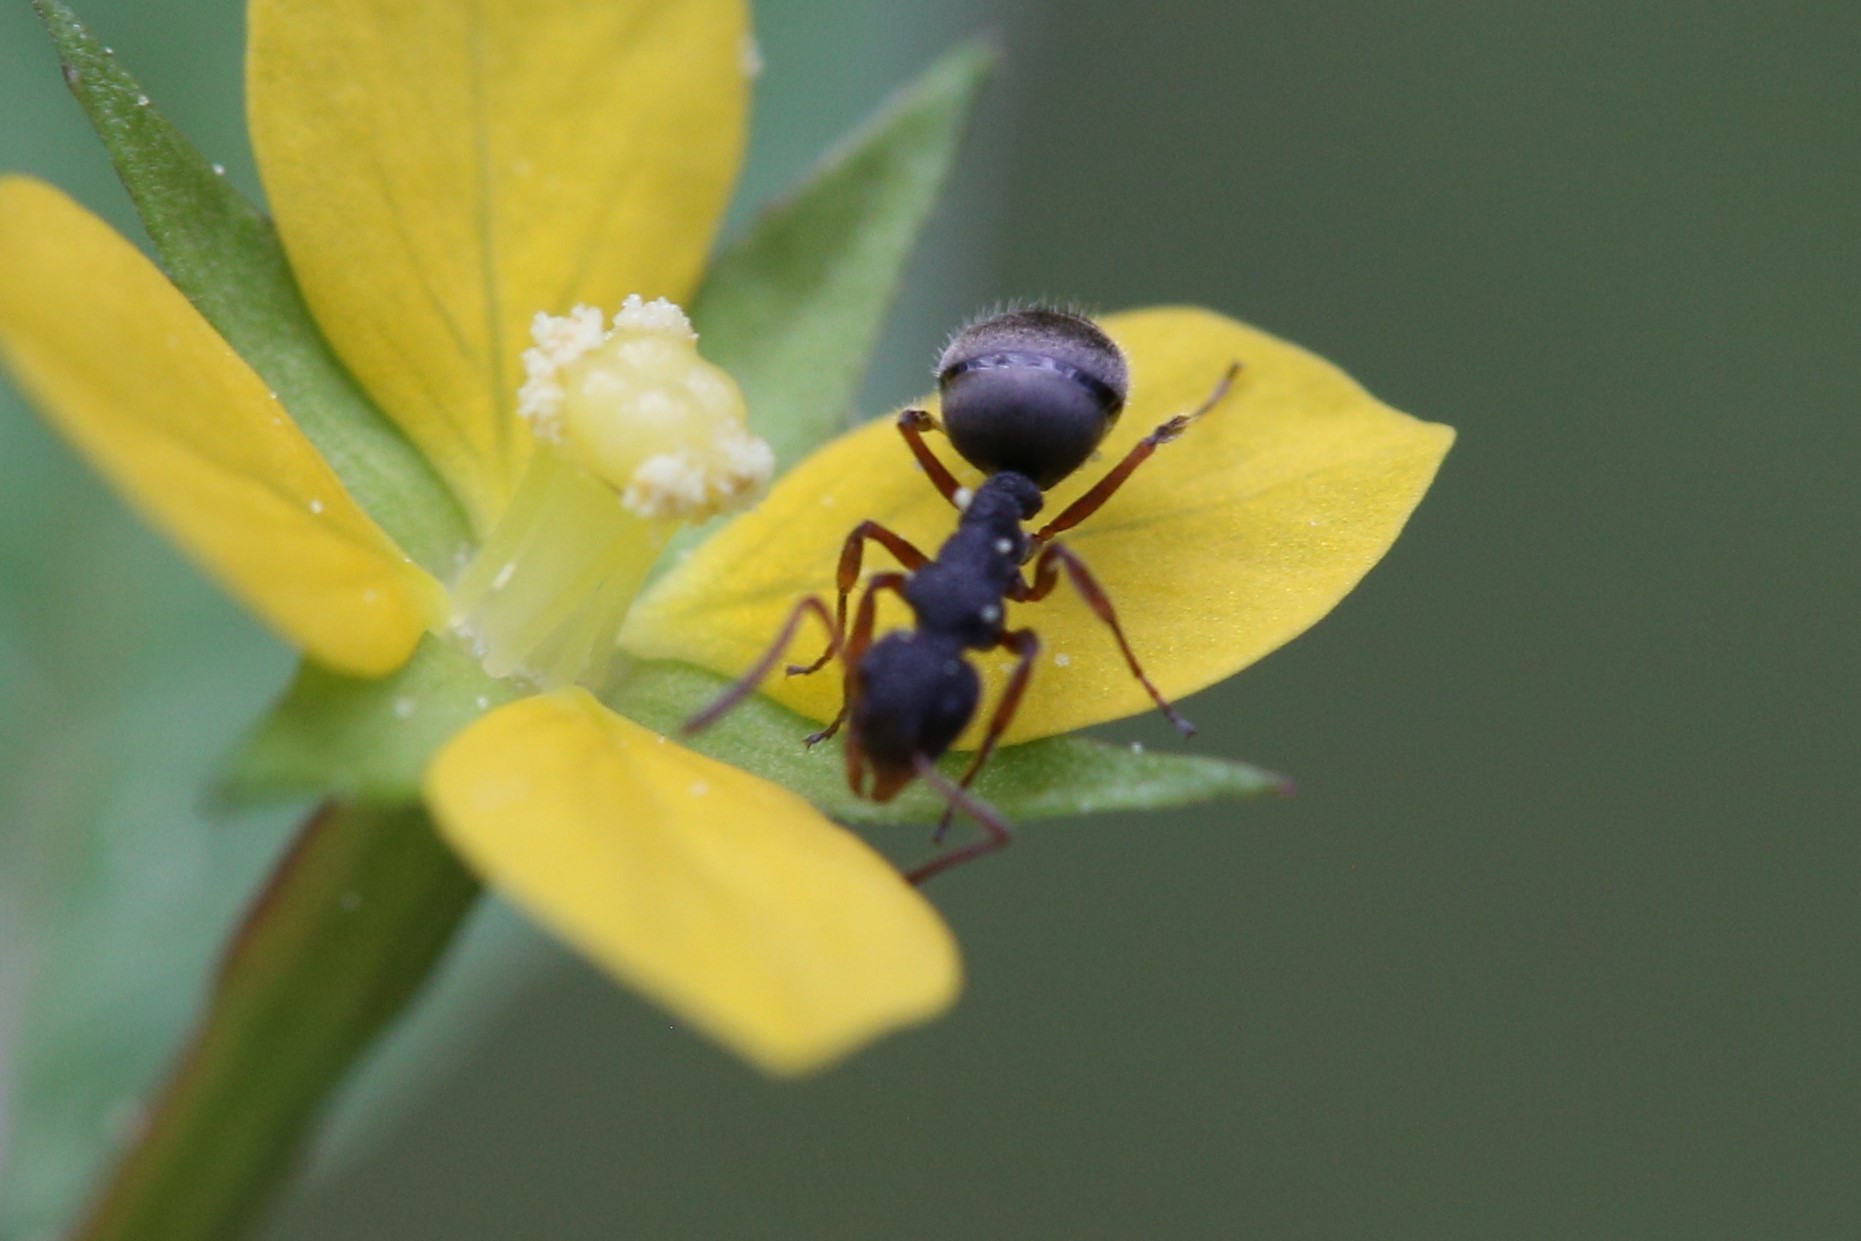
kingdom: Animalia
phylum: Arthropoda
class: Insecta
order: Hymenoptera
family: Formicidae
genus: Dolichoderus
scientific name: Dolichoderus scrobiculatus
